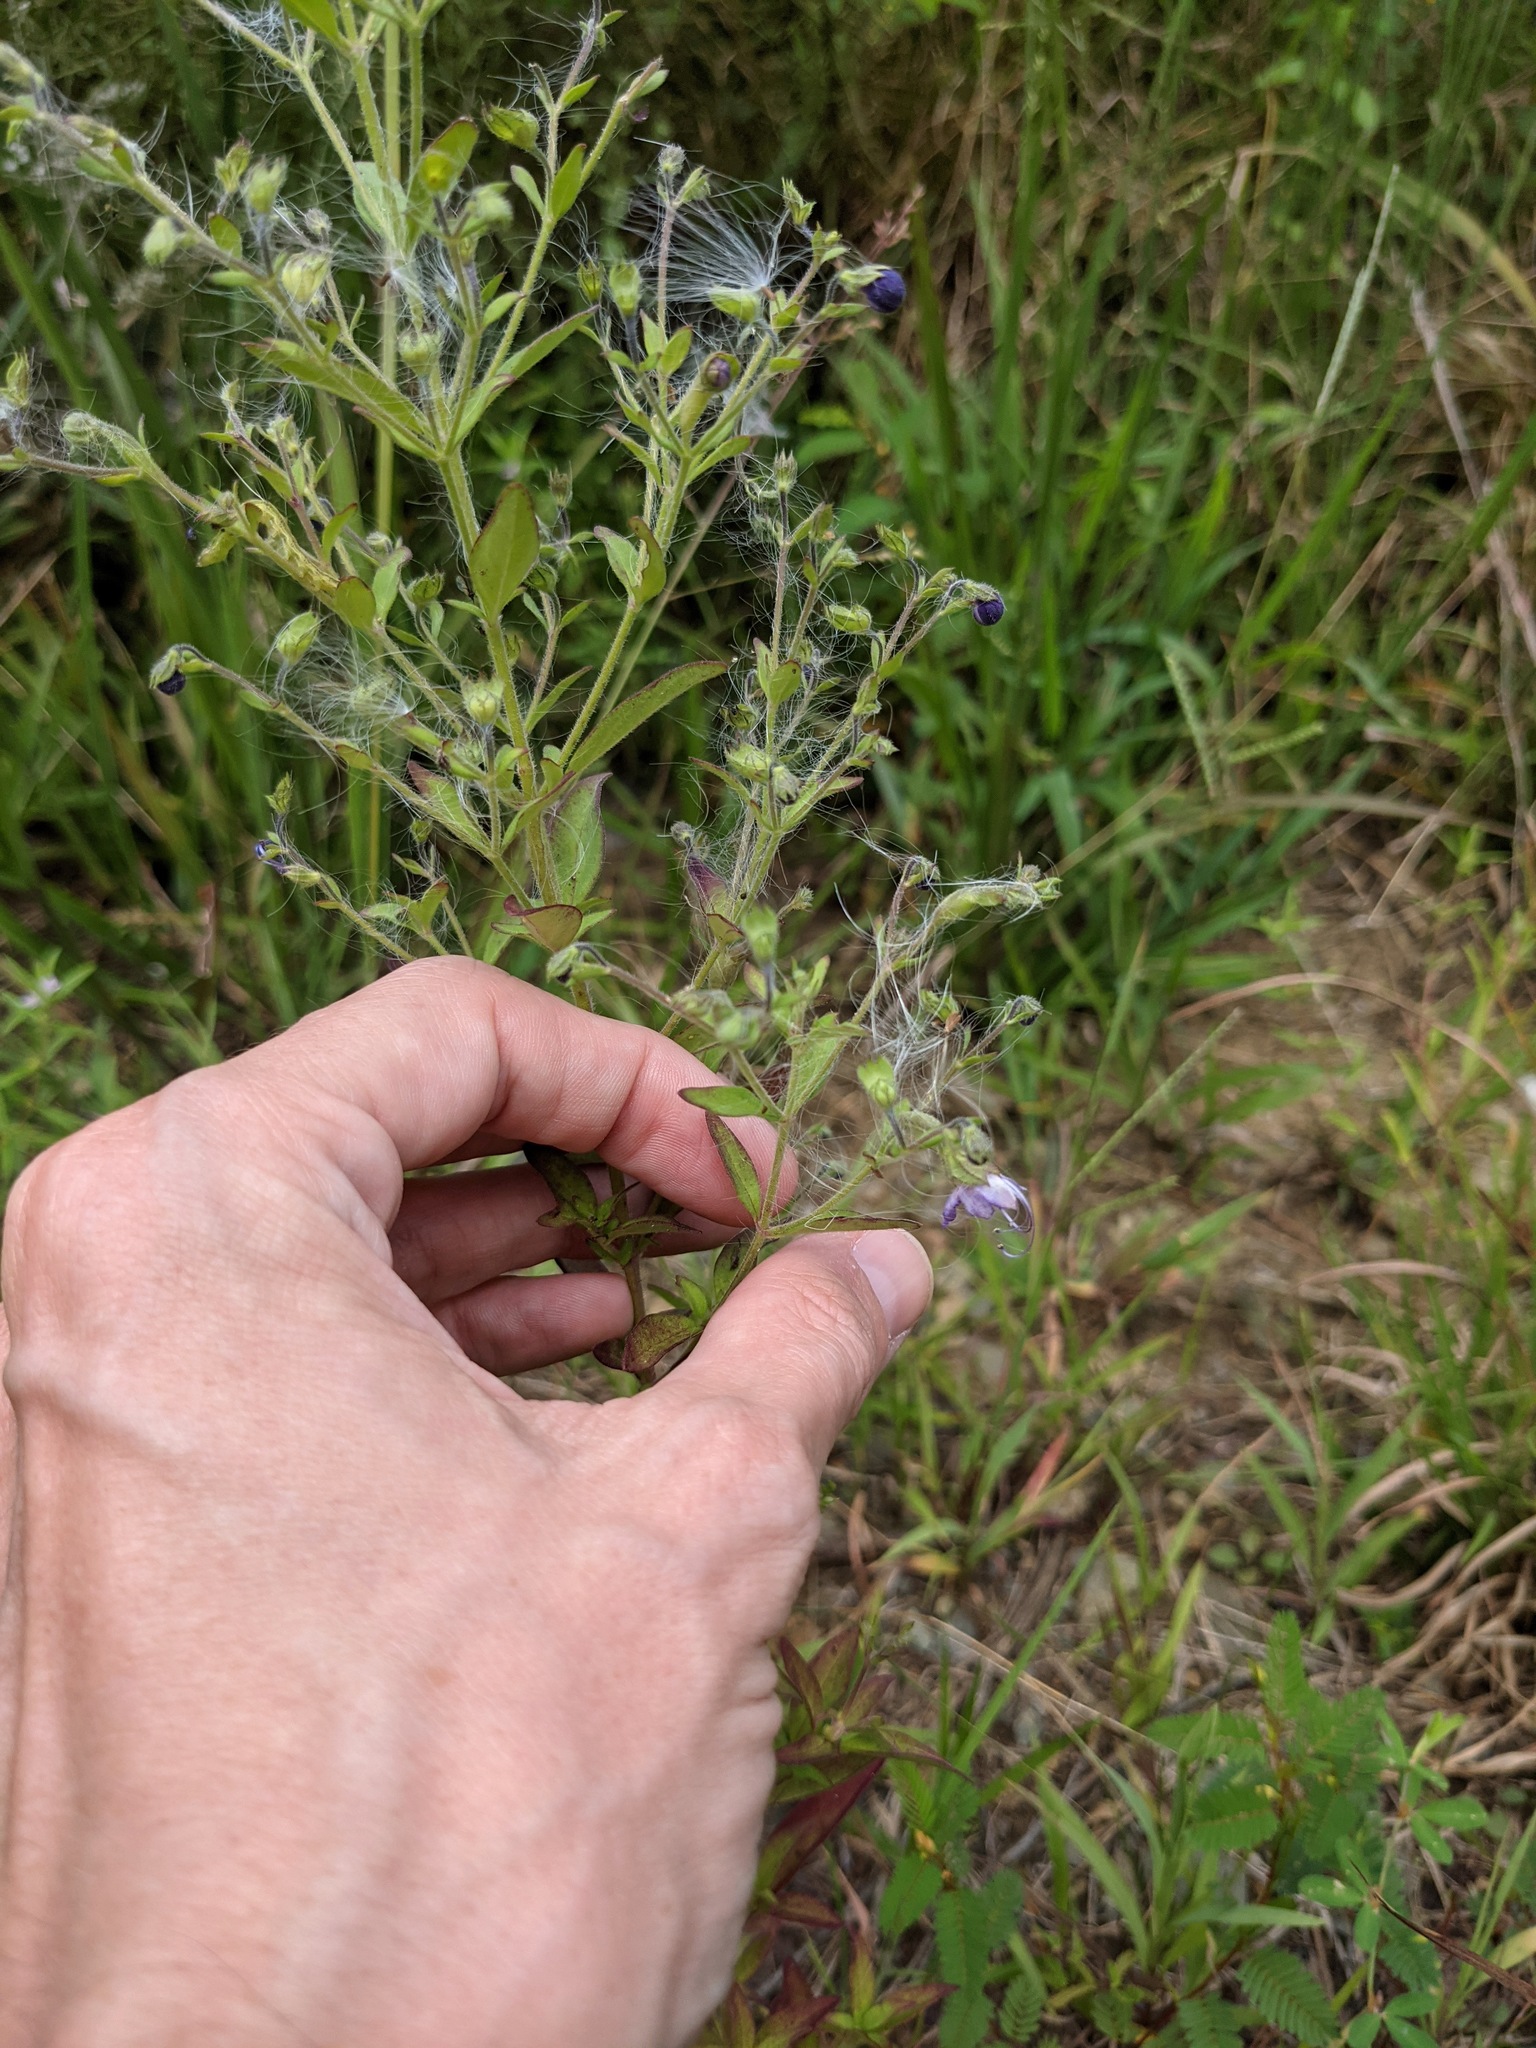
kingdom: Plantae
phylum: Tracheophyta
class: Magnoliopsida
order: Lamiales
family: Lamiaceae
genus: Trichostema
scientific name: Trichostema dichotomum
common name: Bastard pennyroyal
